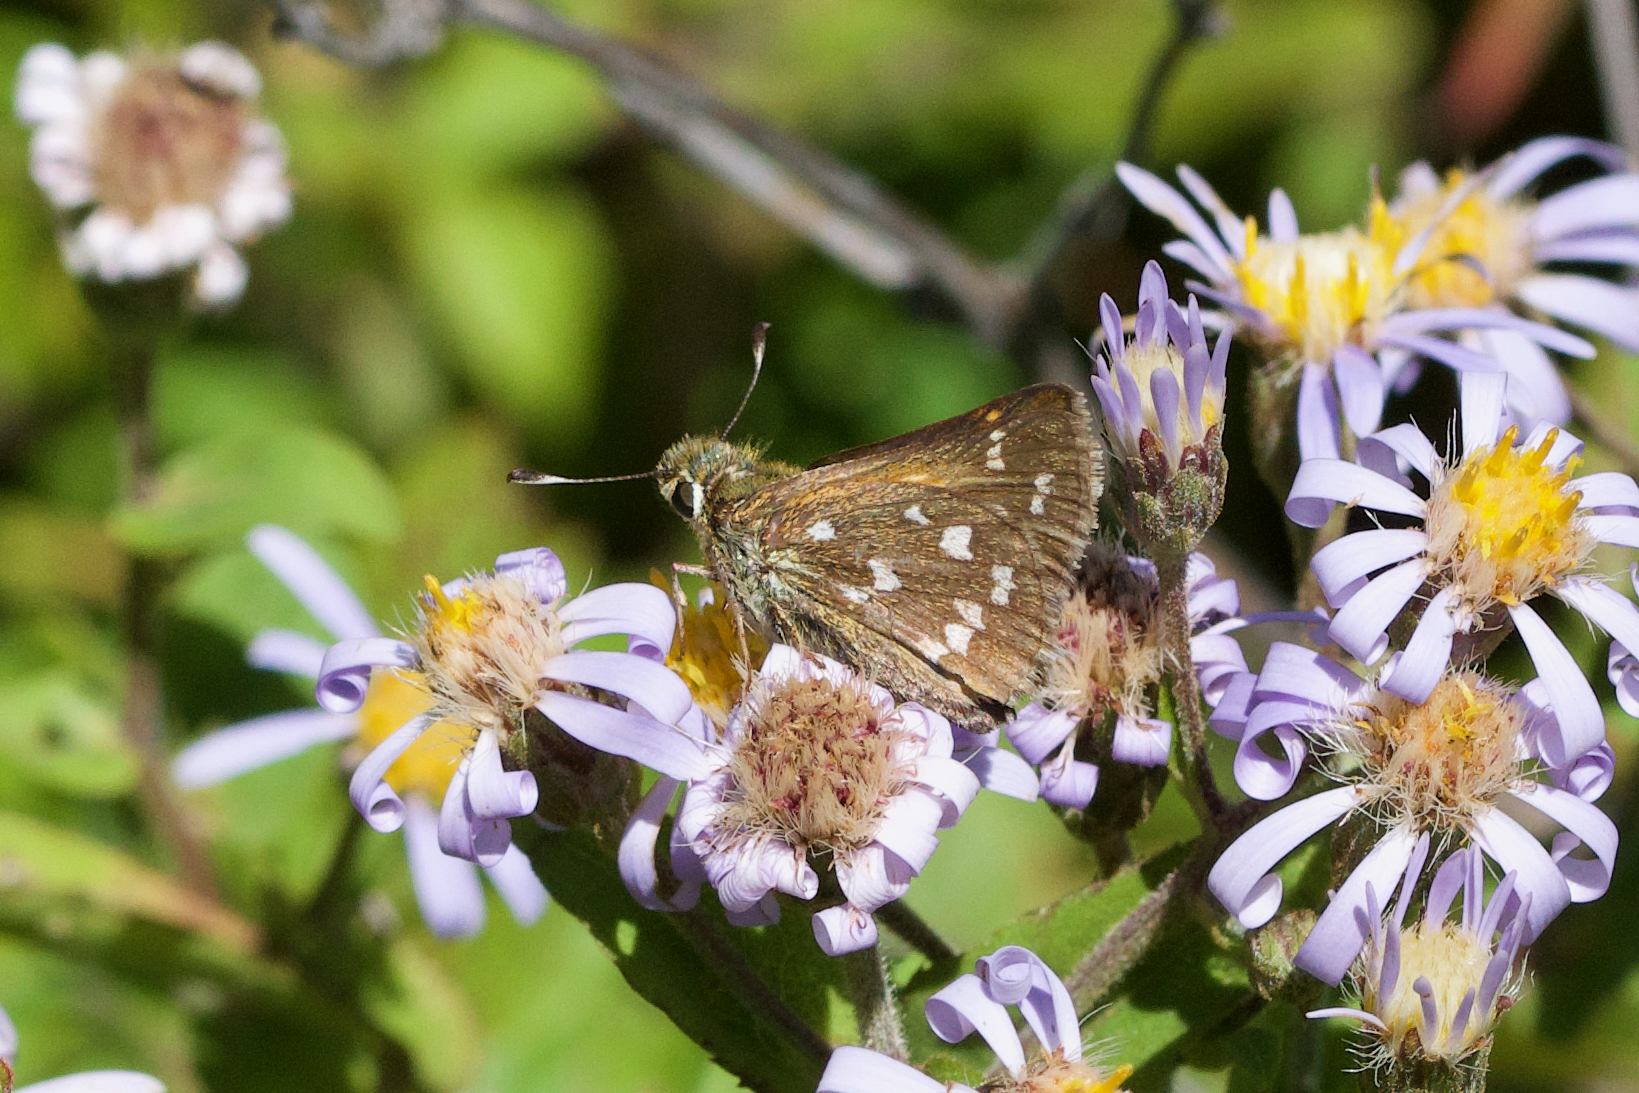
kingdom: Animalia
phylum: Arthropoda
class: Insecta
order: Lepidoptera
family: Hesperiidae
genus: Hesperia
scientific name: Hesperia comma
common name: Common branded skipper
